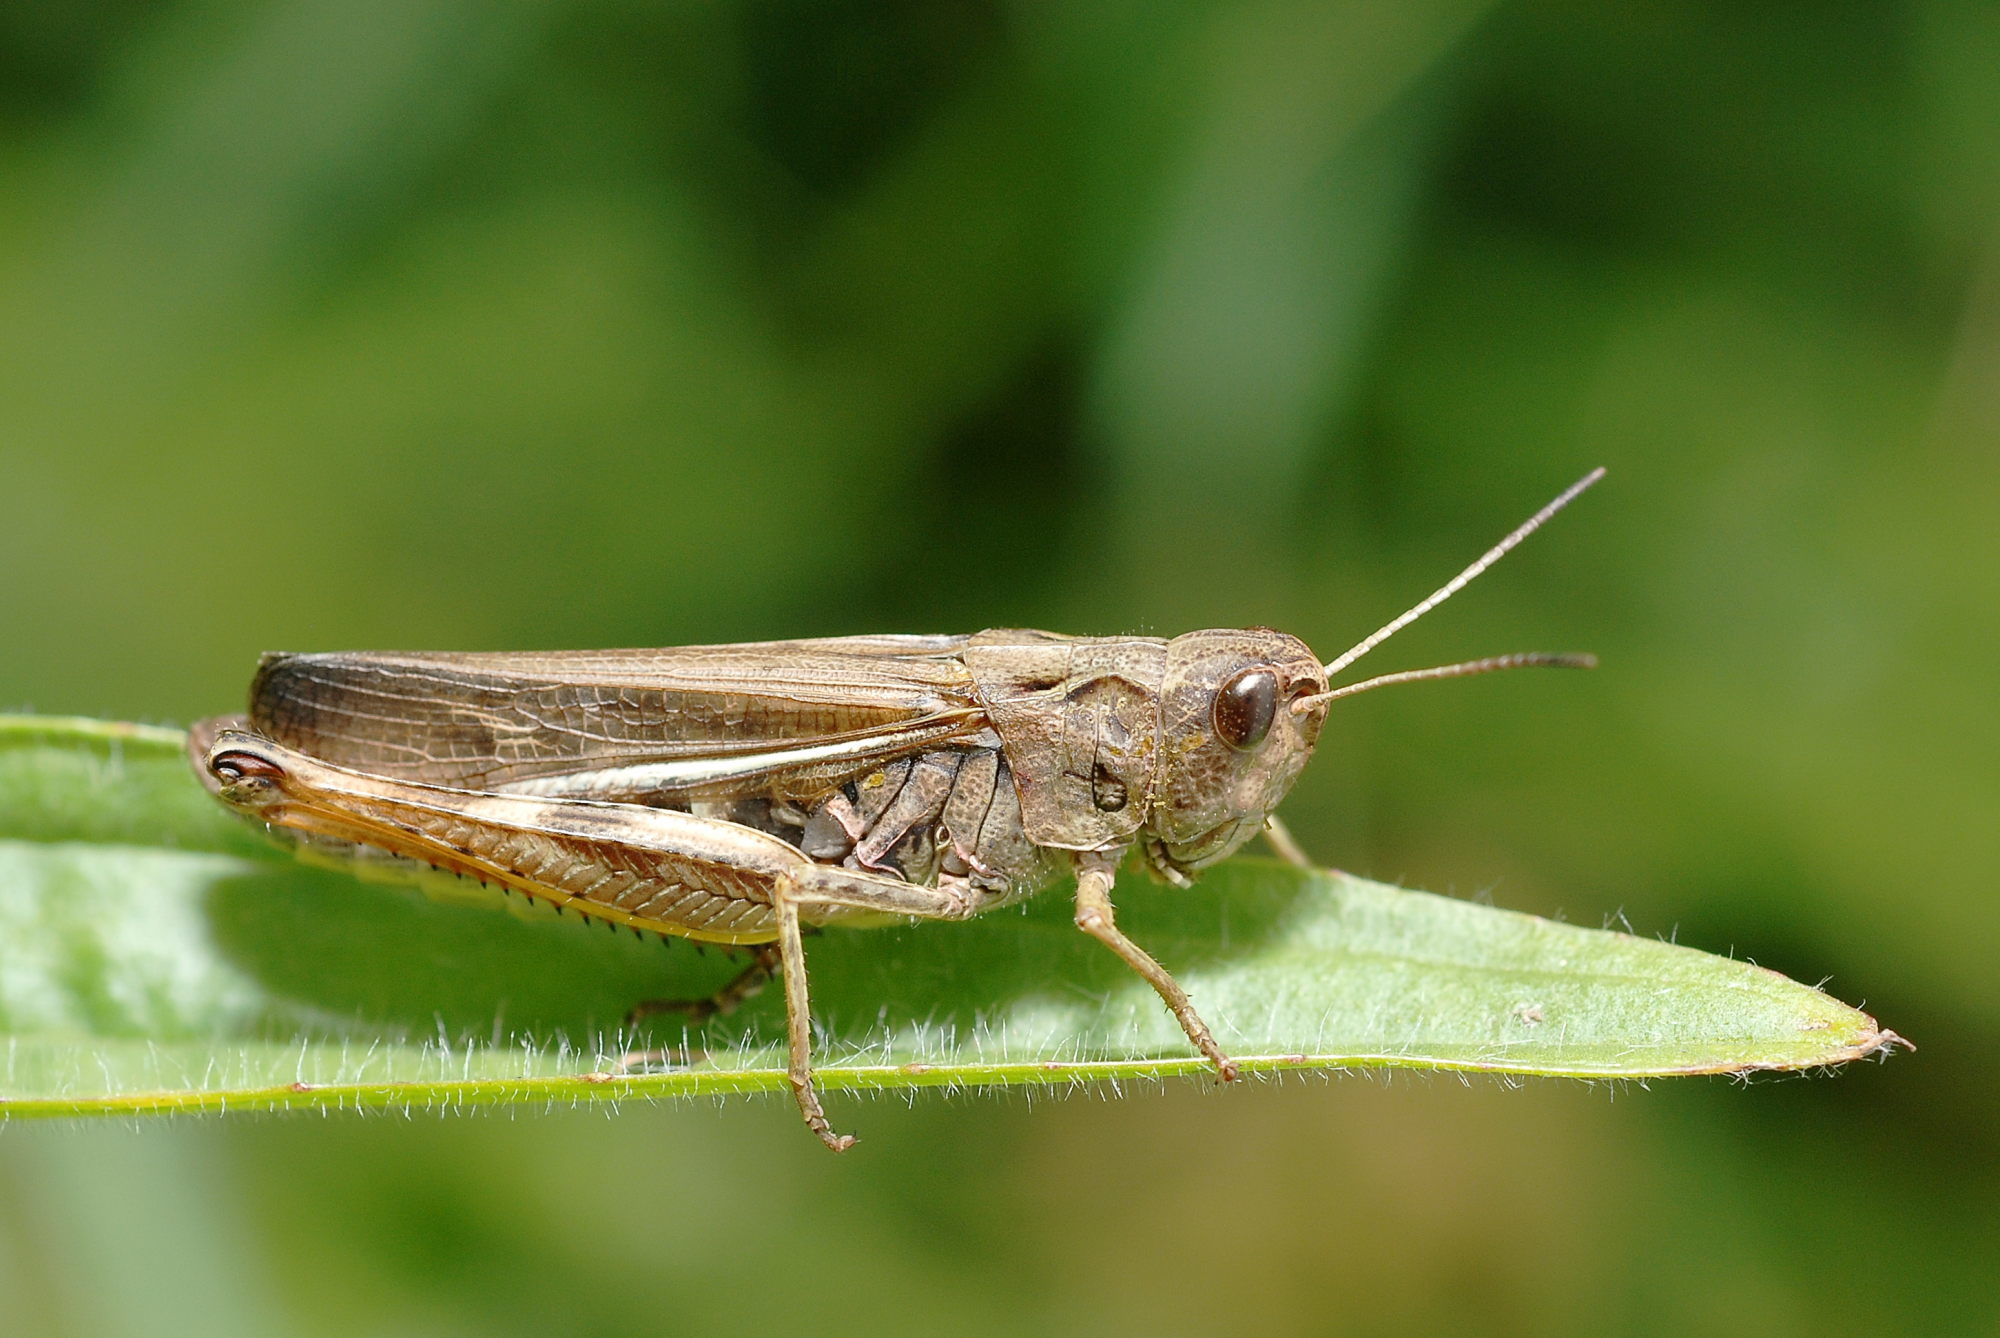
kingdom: Animalia
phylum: Arthropoda
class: Insecta
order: Orthoptera
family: Acrididae
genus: Stauroderus
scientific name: Stauroderus scalaris
